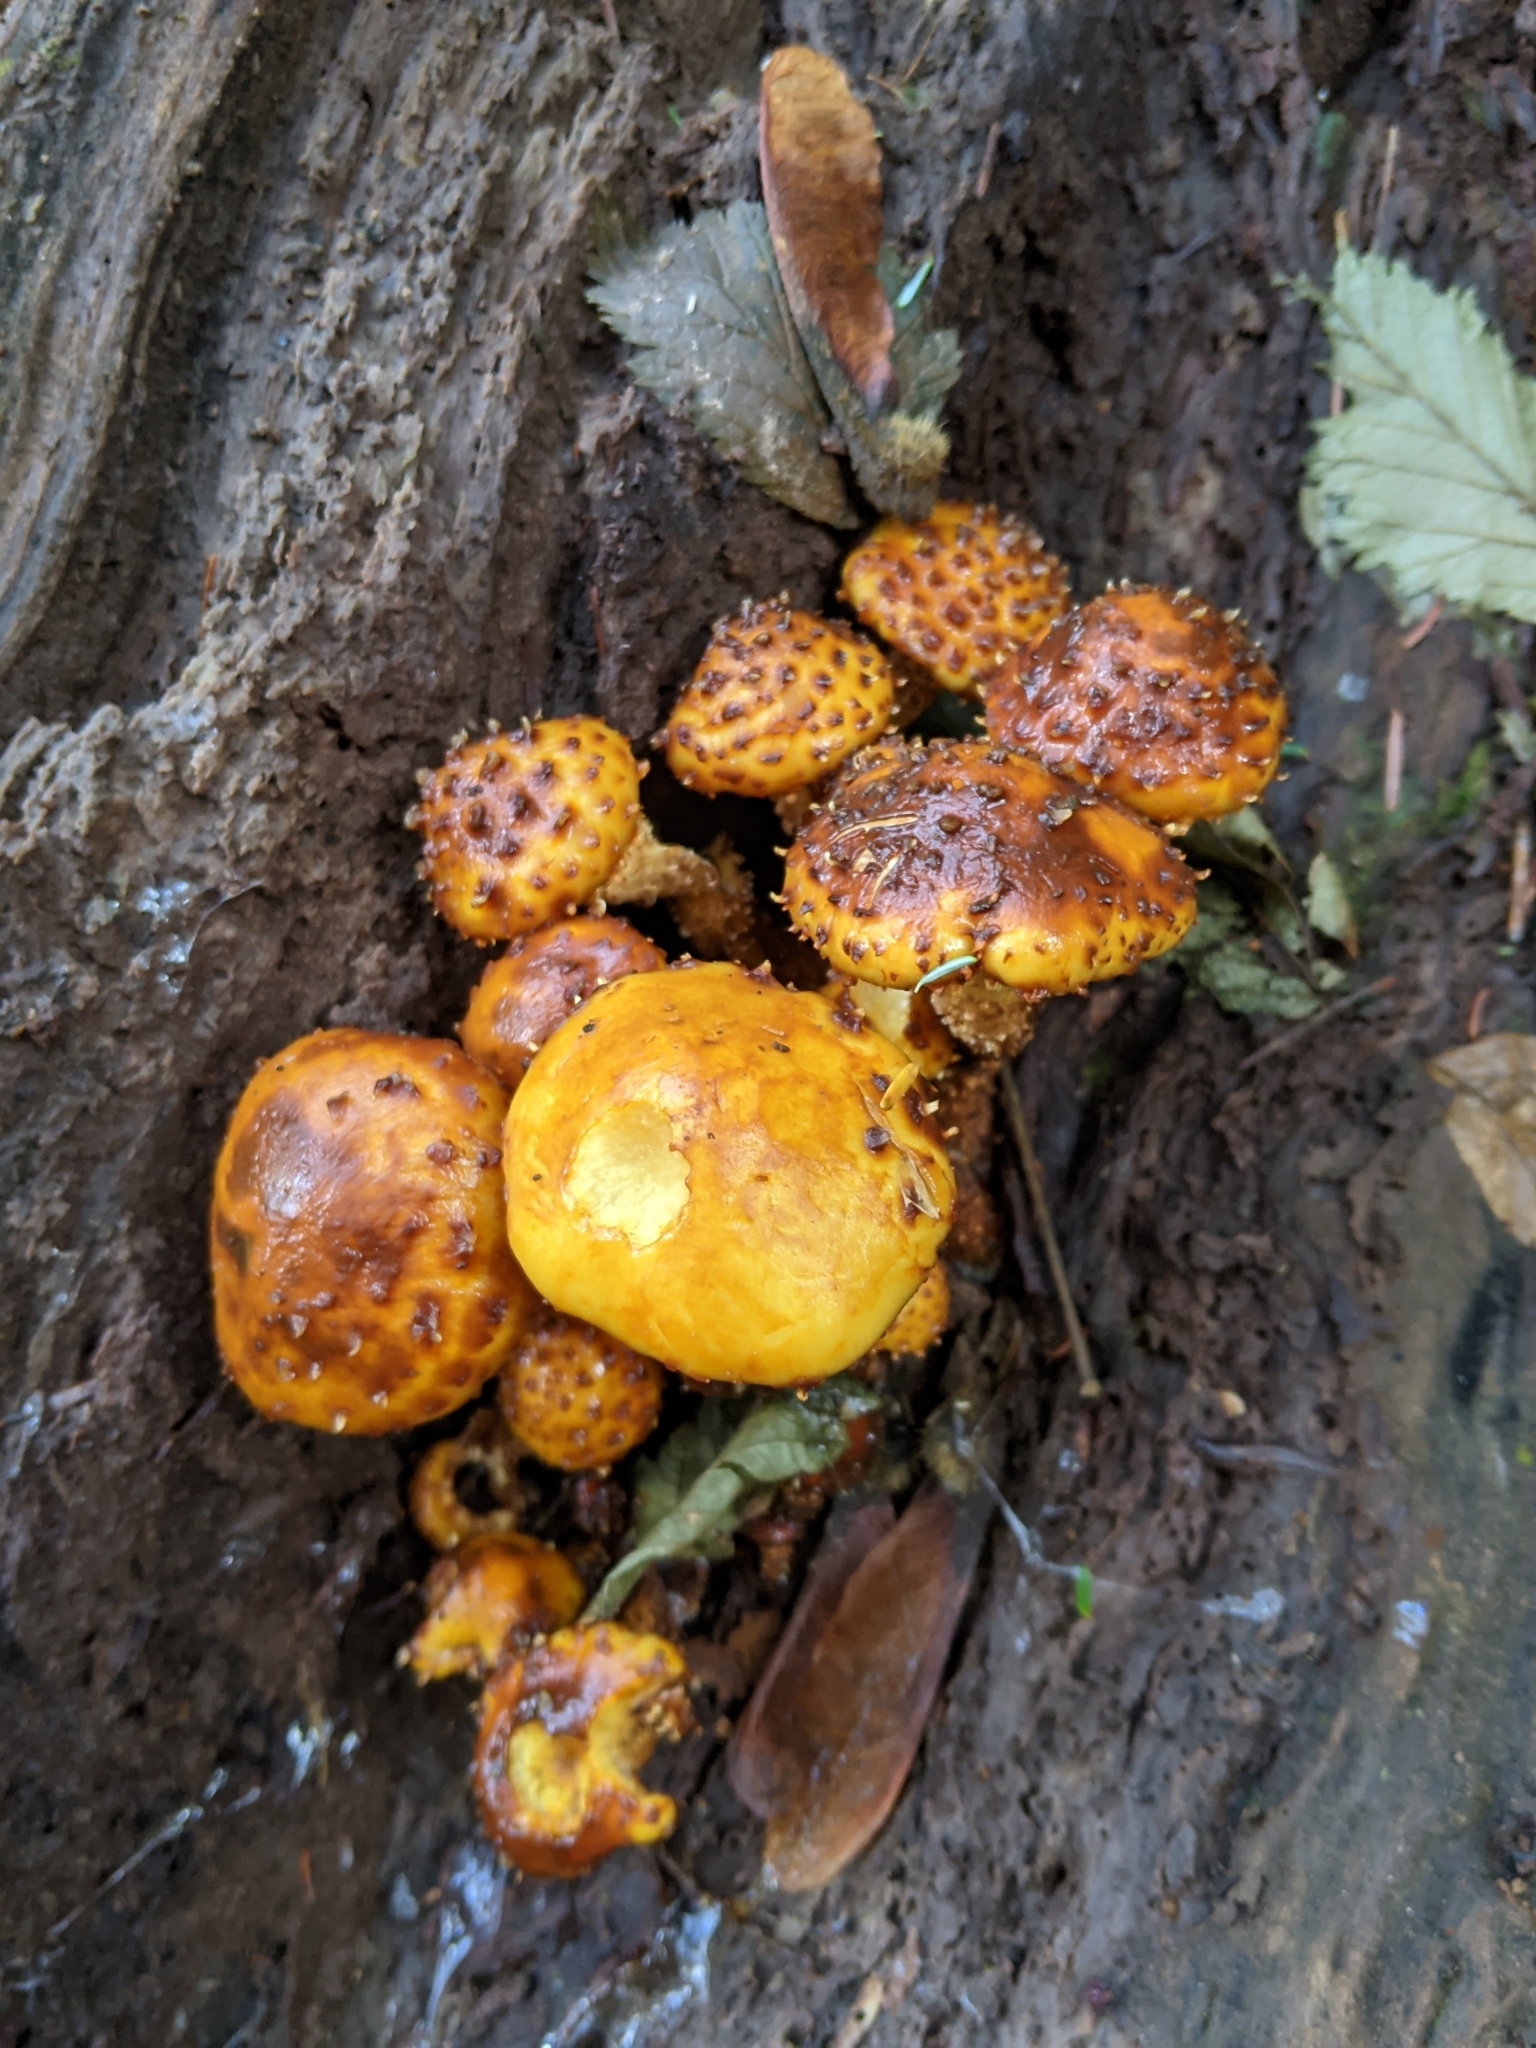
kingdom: Fungi
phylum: Basidiomycota
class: Agaricomycetes
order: Agaricales
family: Strophariaceae
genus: Pholiota
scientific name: Pholiota aurivella
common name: Golden scalycap
